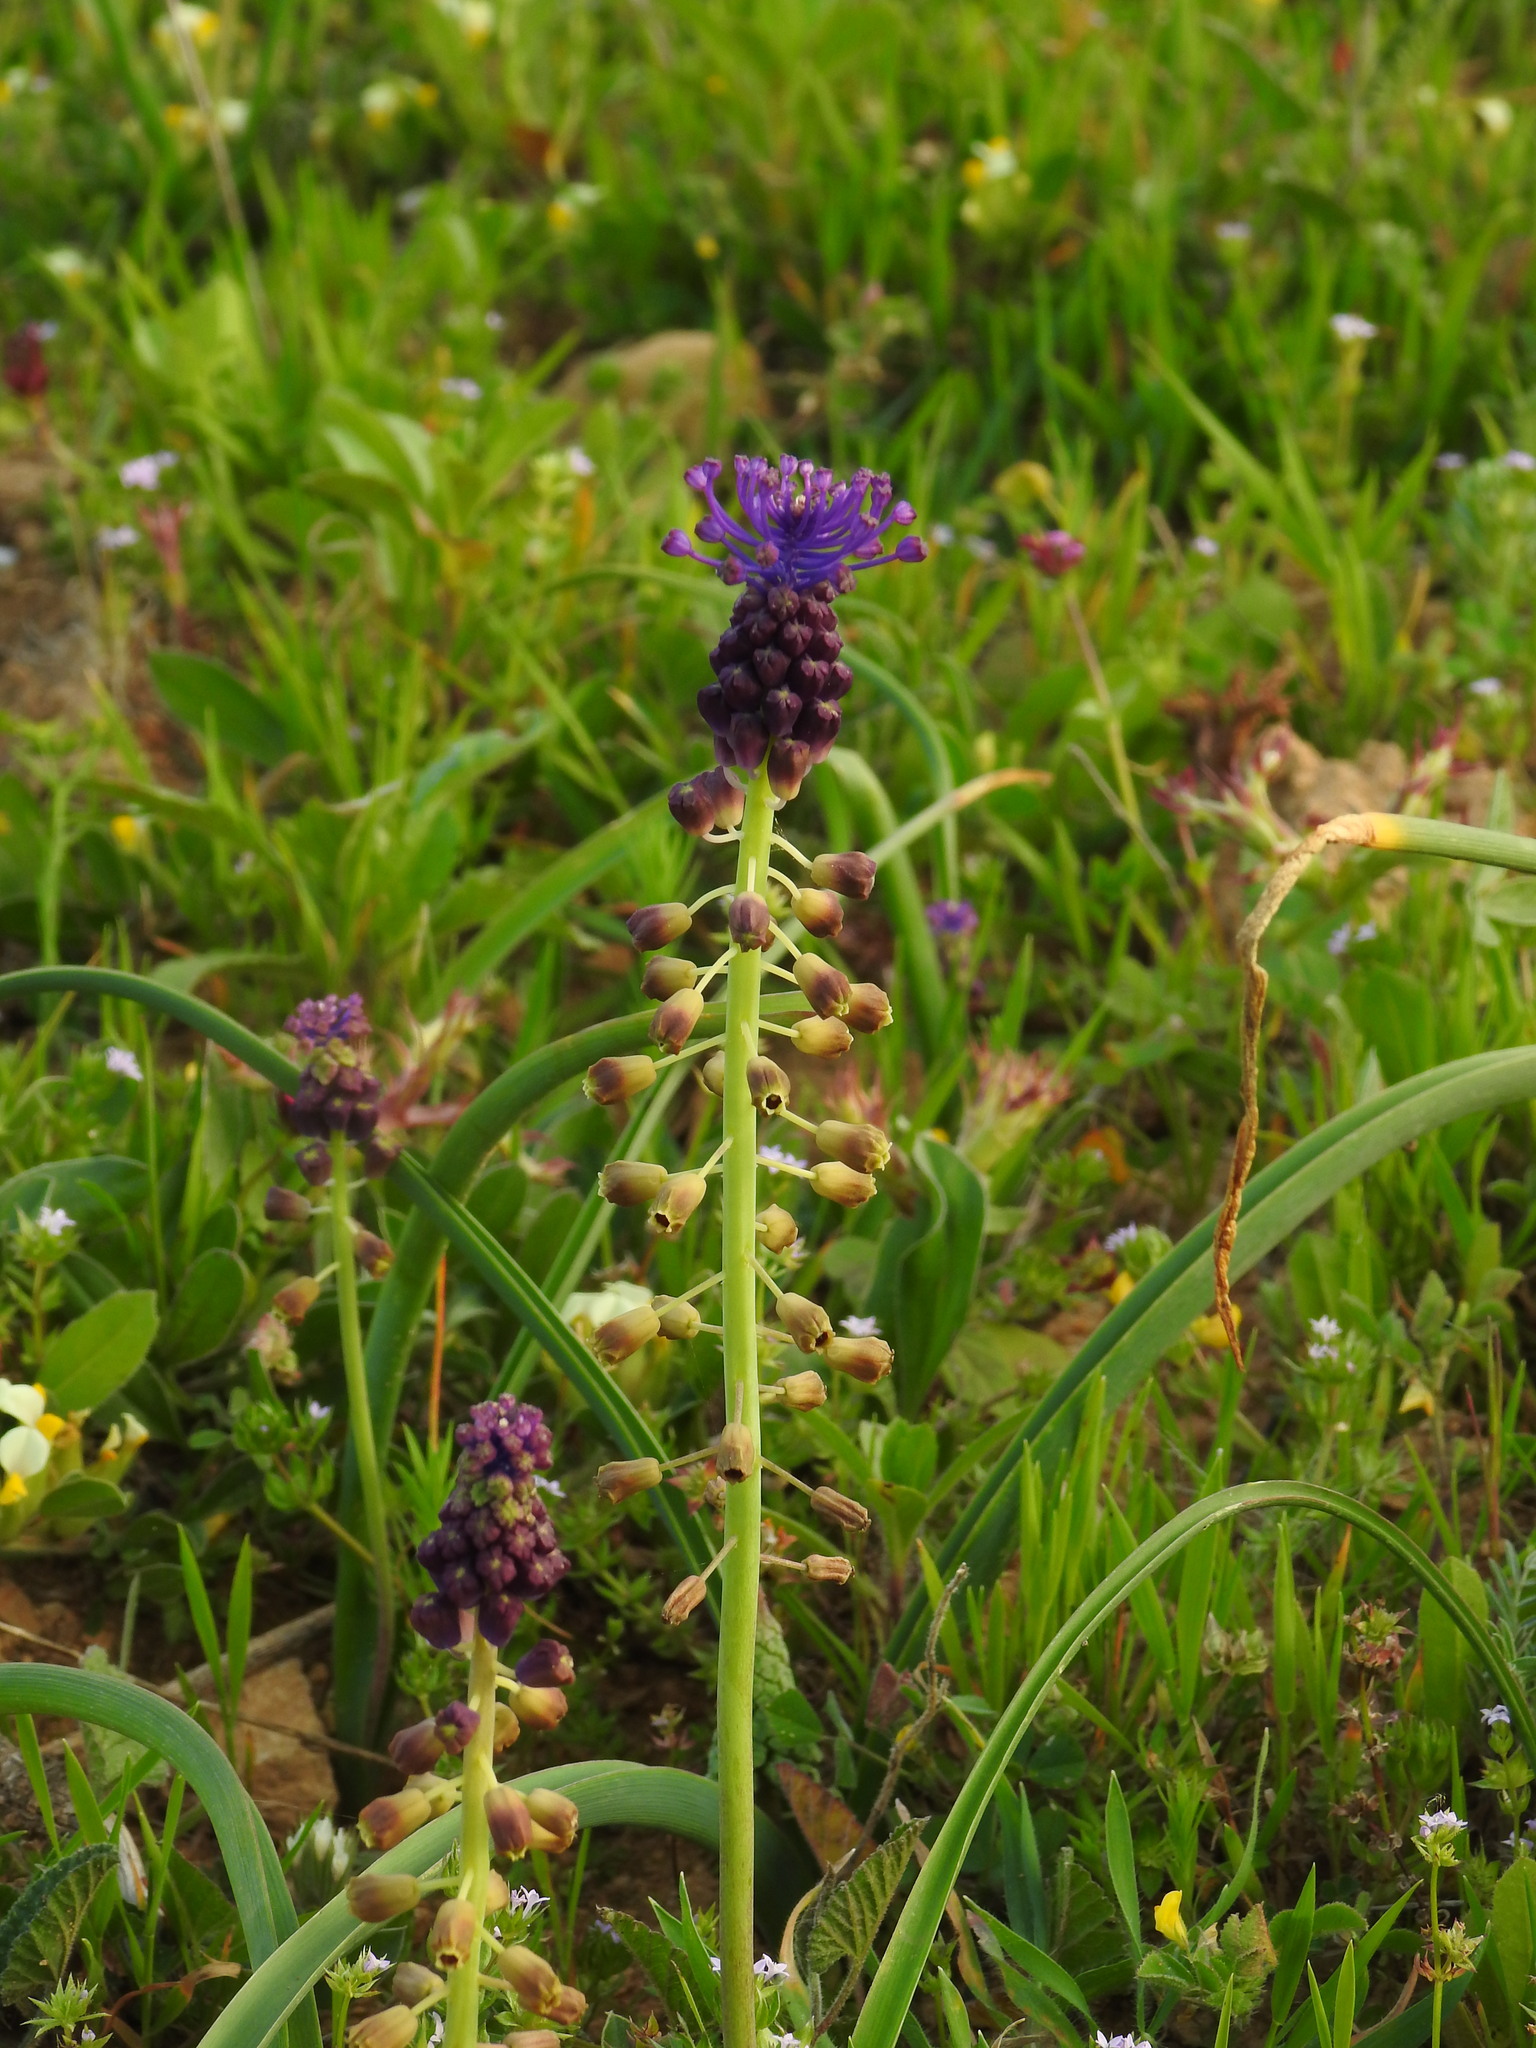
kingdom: Plantae
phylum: Tracheophyta
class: Liliopsida
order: Asparagales
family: Asparagaceae
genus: Muscari
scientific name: Muscari comosum
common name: Tassel hyacinth
